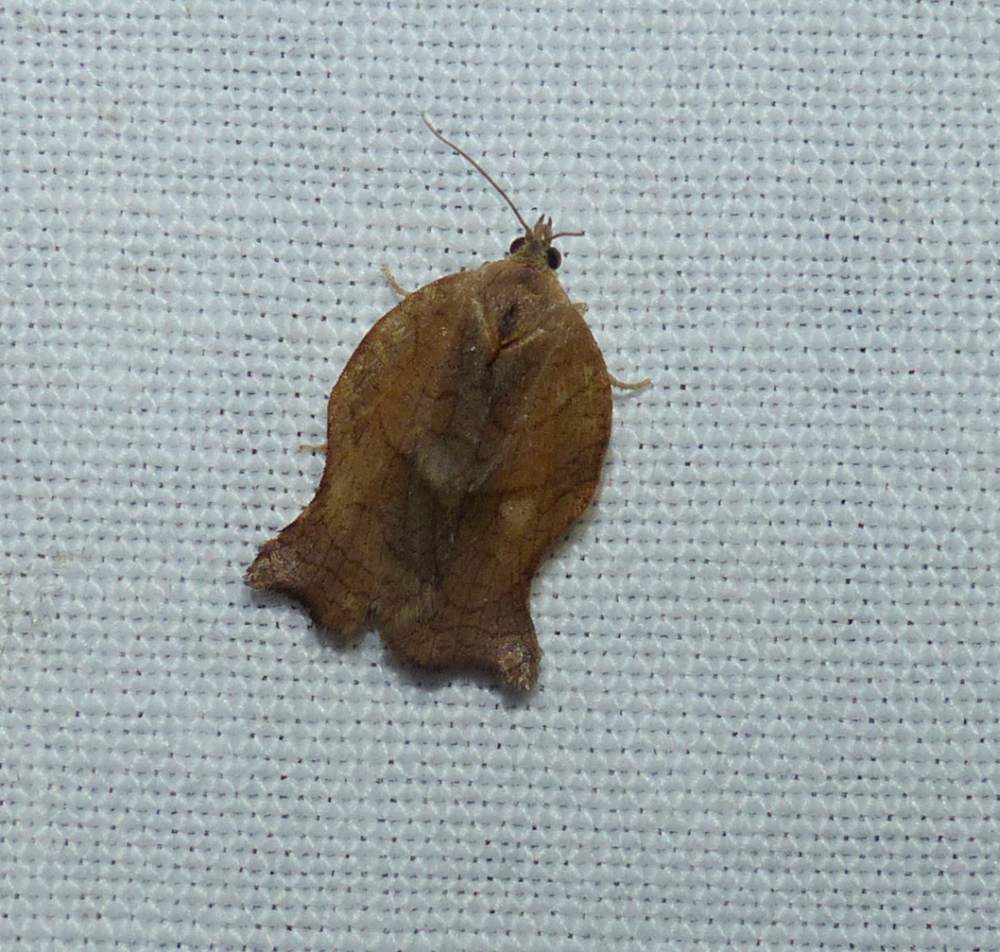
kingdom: Animalia
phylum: Arthropoda
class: Insecta
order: Lepidoptera
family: Tortricidae
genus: Archips
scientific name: Archips purpurana
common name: Omnivorous leafroller
